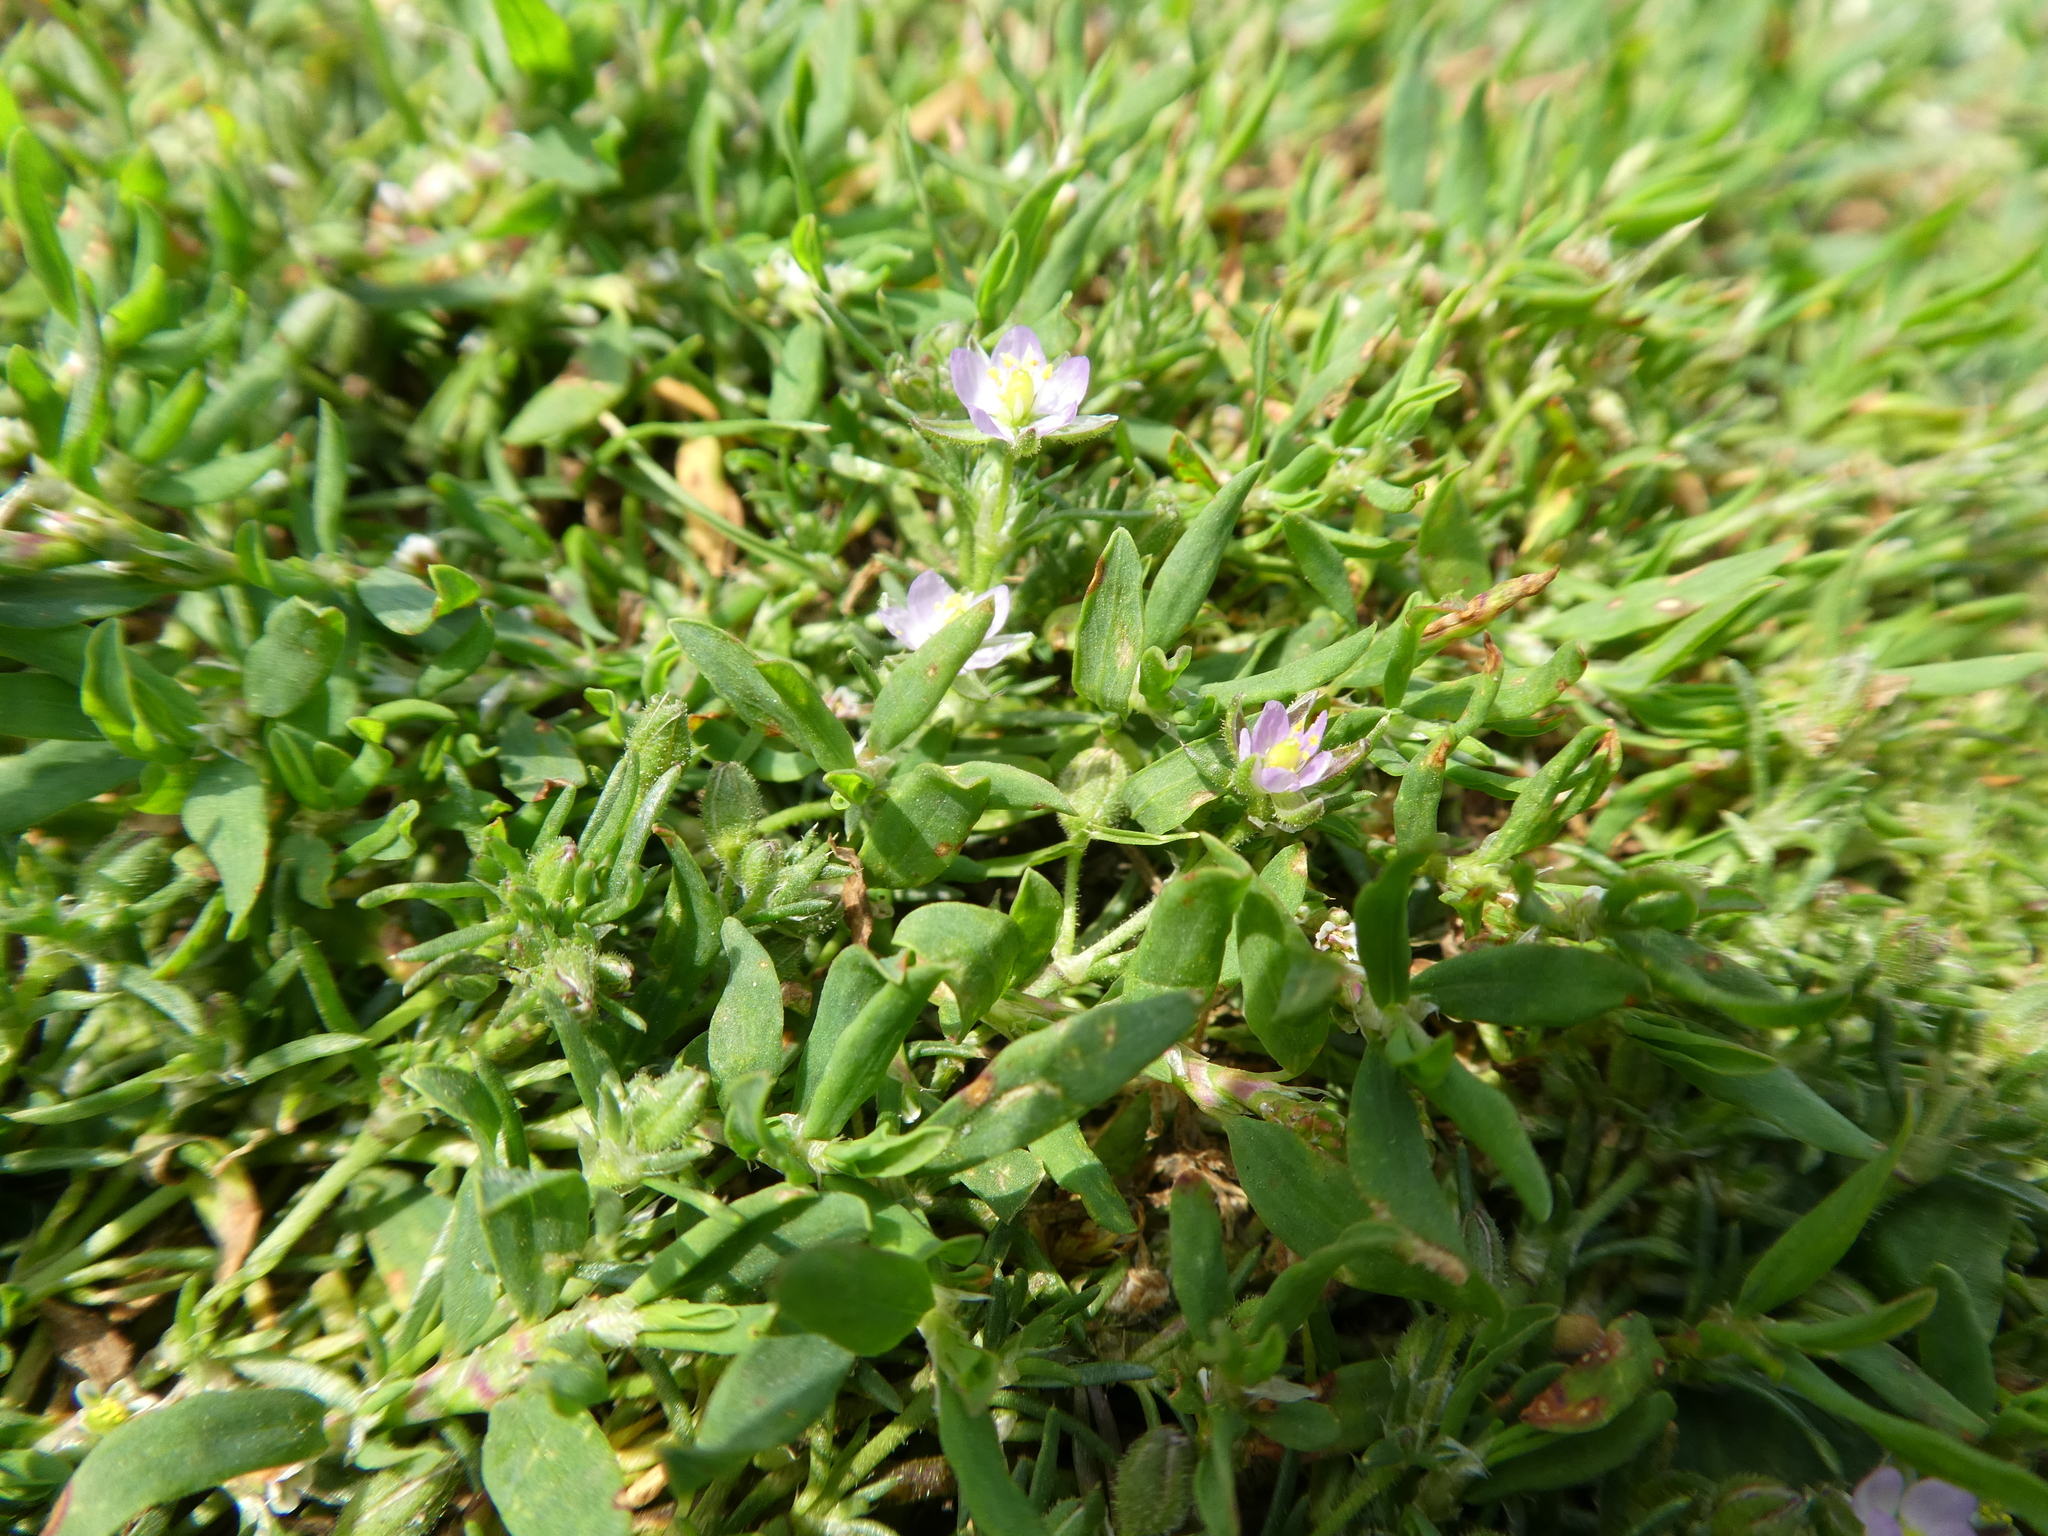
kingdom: Plantae
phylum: Tracheophyta
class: Magnoliopsida
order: Caryophyllales
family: Caryophyllaceae
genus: Spergularia
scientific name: Spergularia
